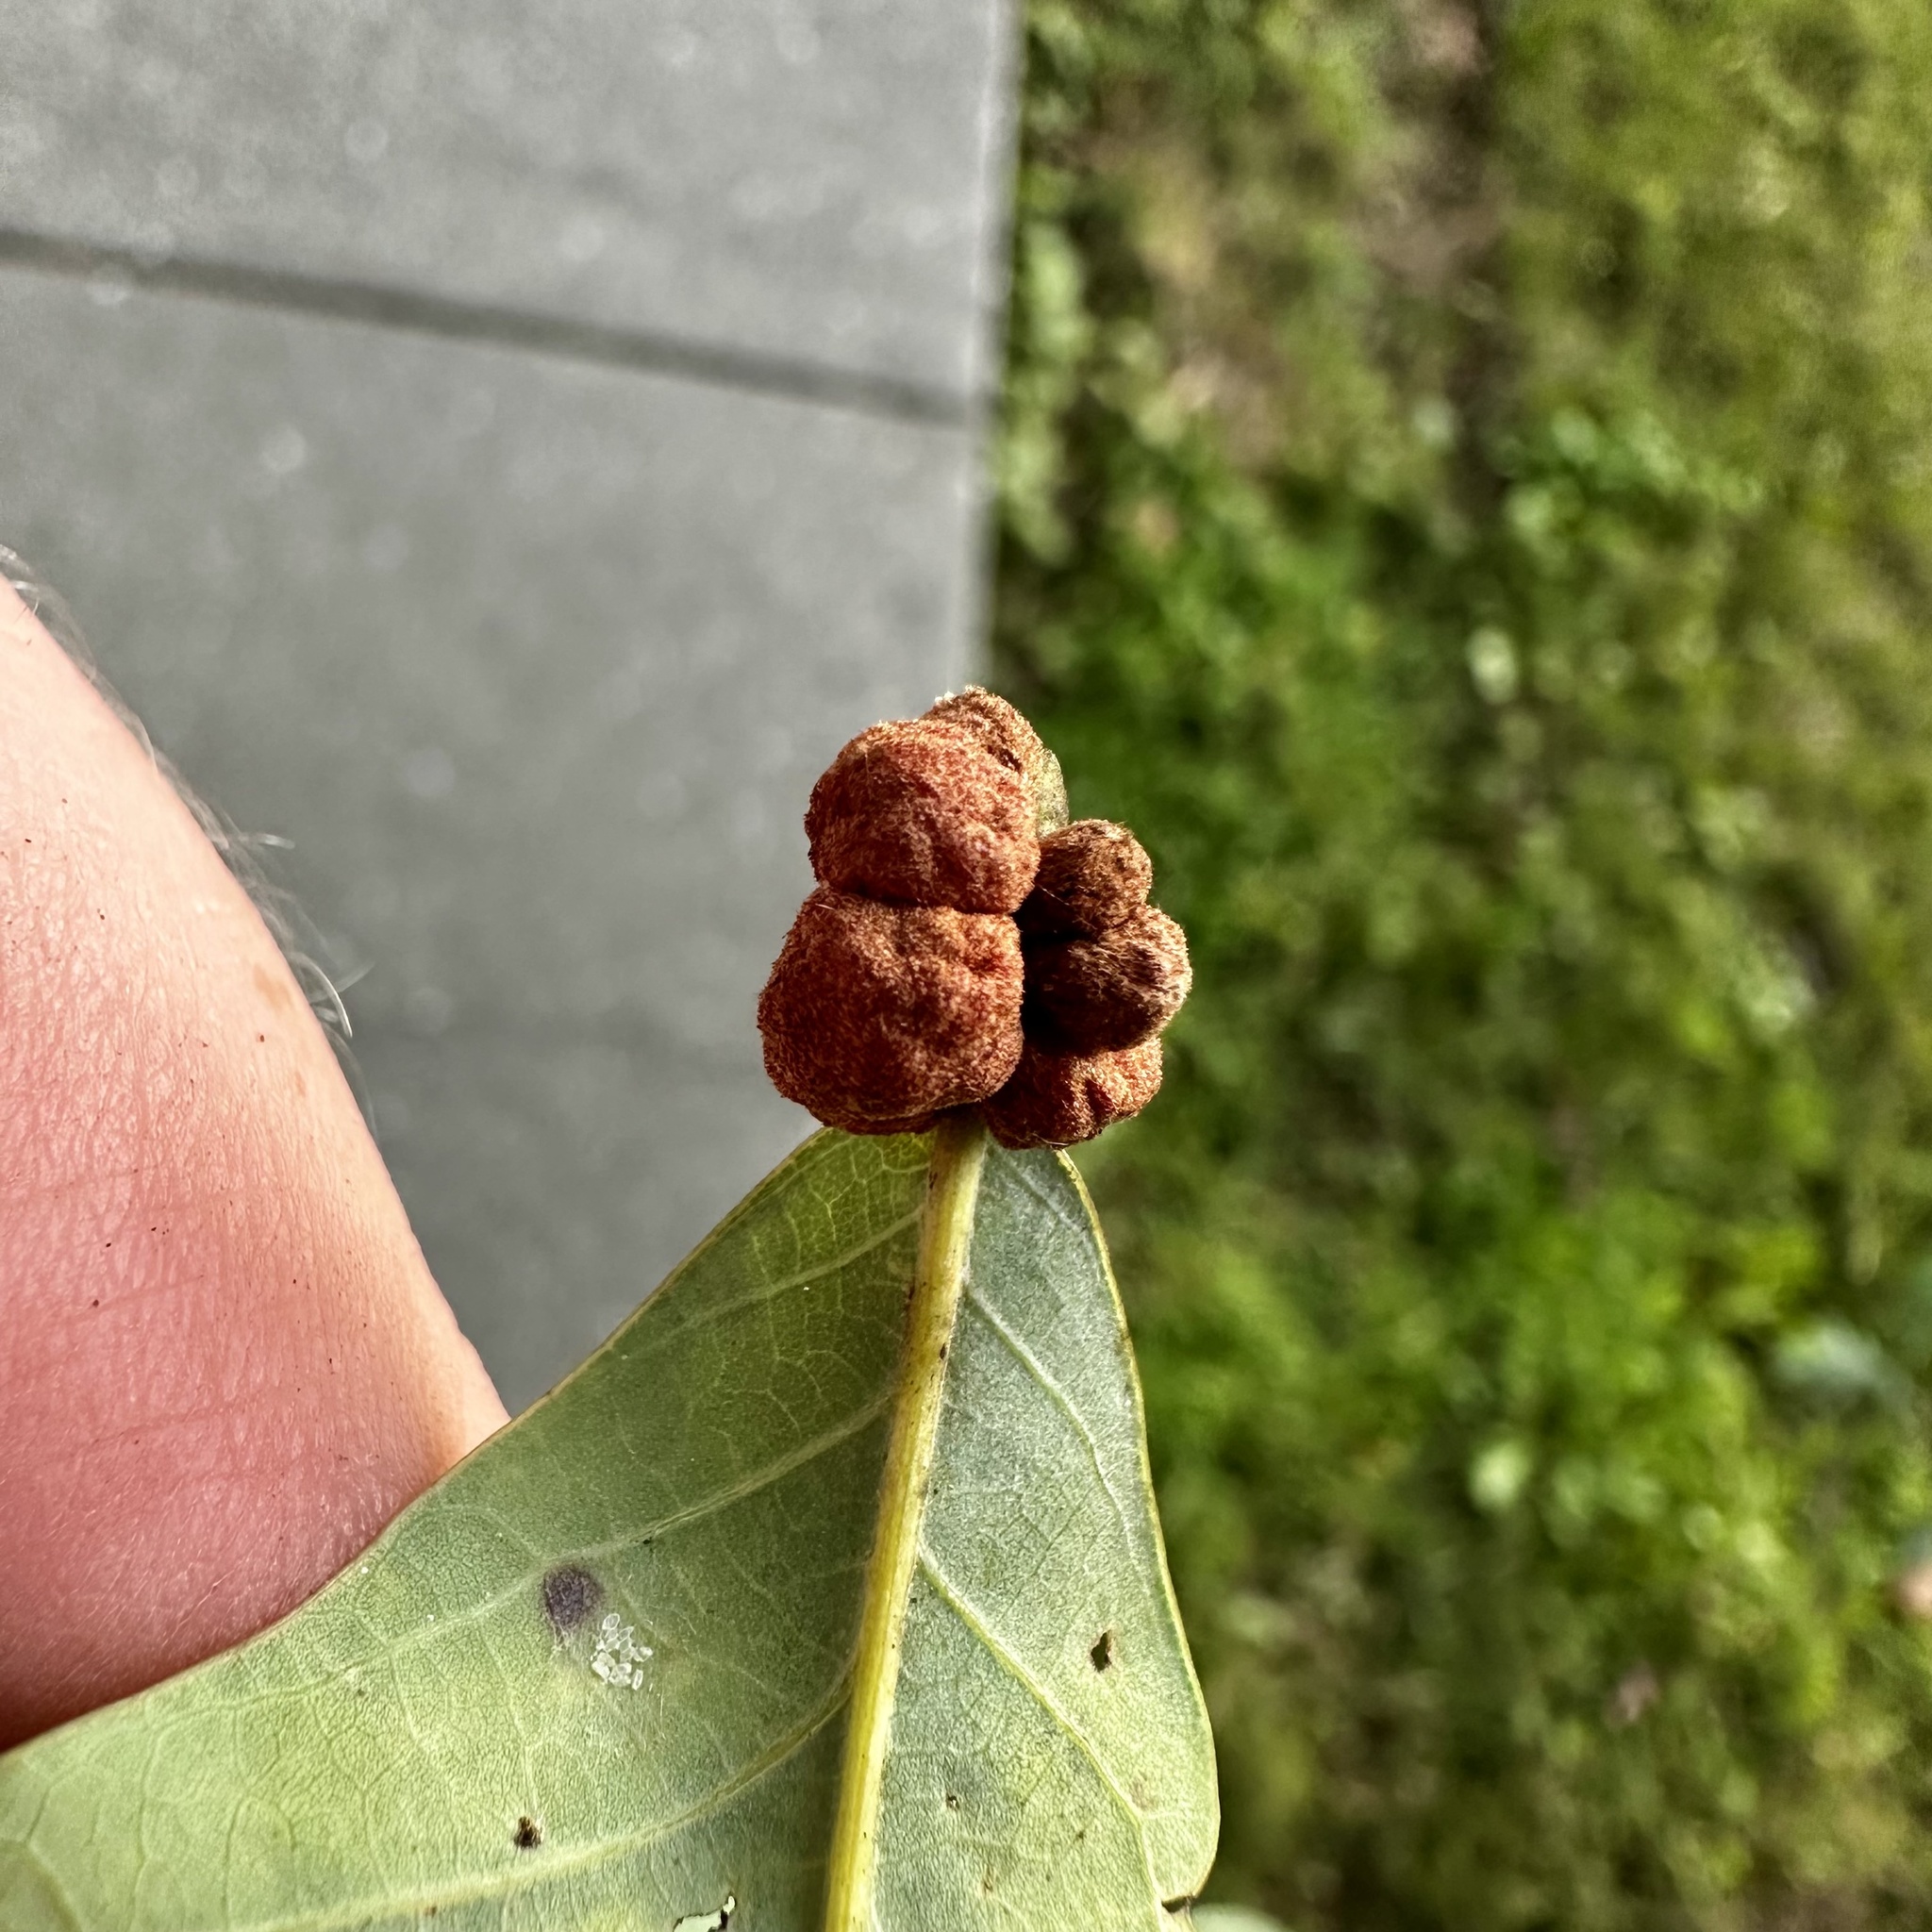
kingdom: Animalia
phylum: Arthropoda
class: Insecta
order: Hymenoptera
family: Cynipidae
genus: Andricus
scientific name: Andricus
